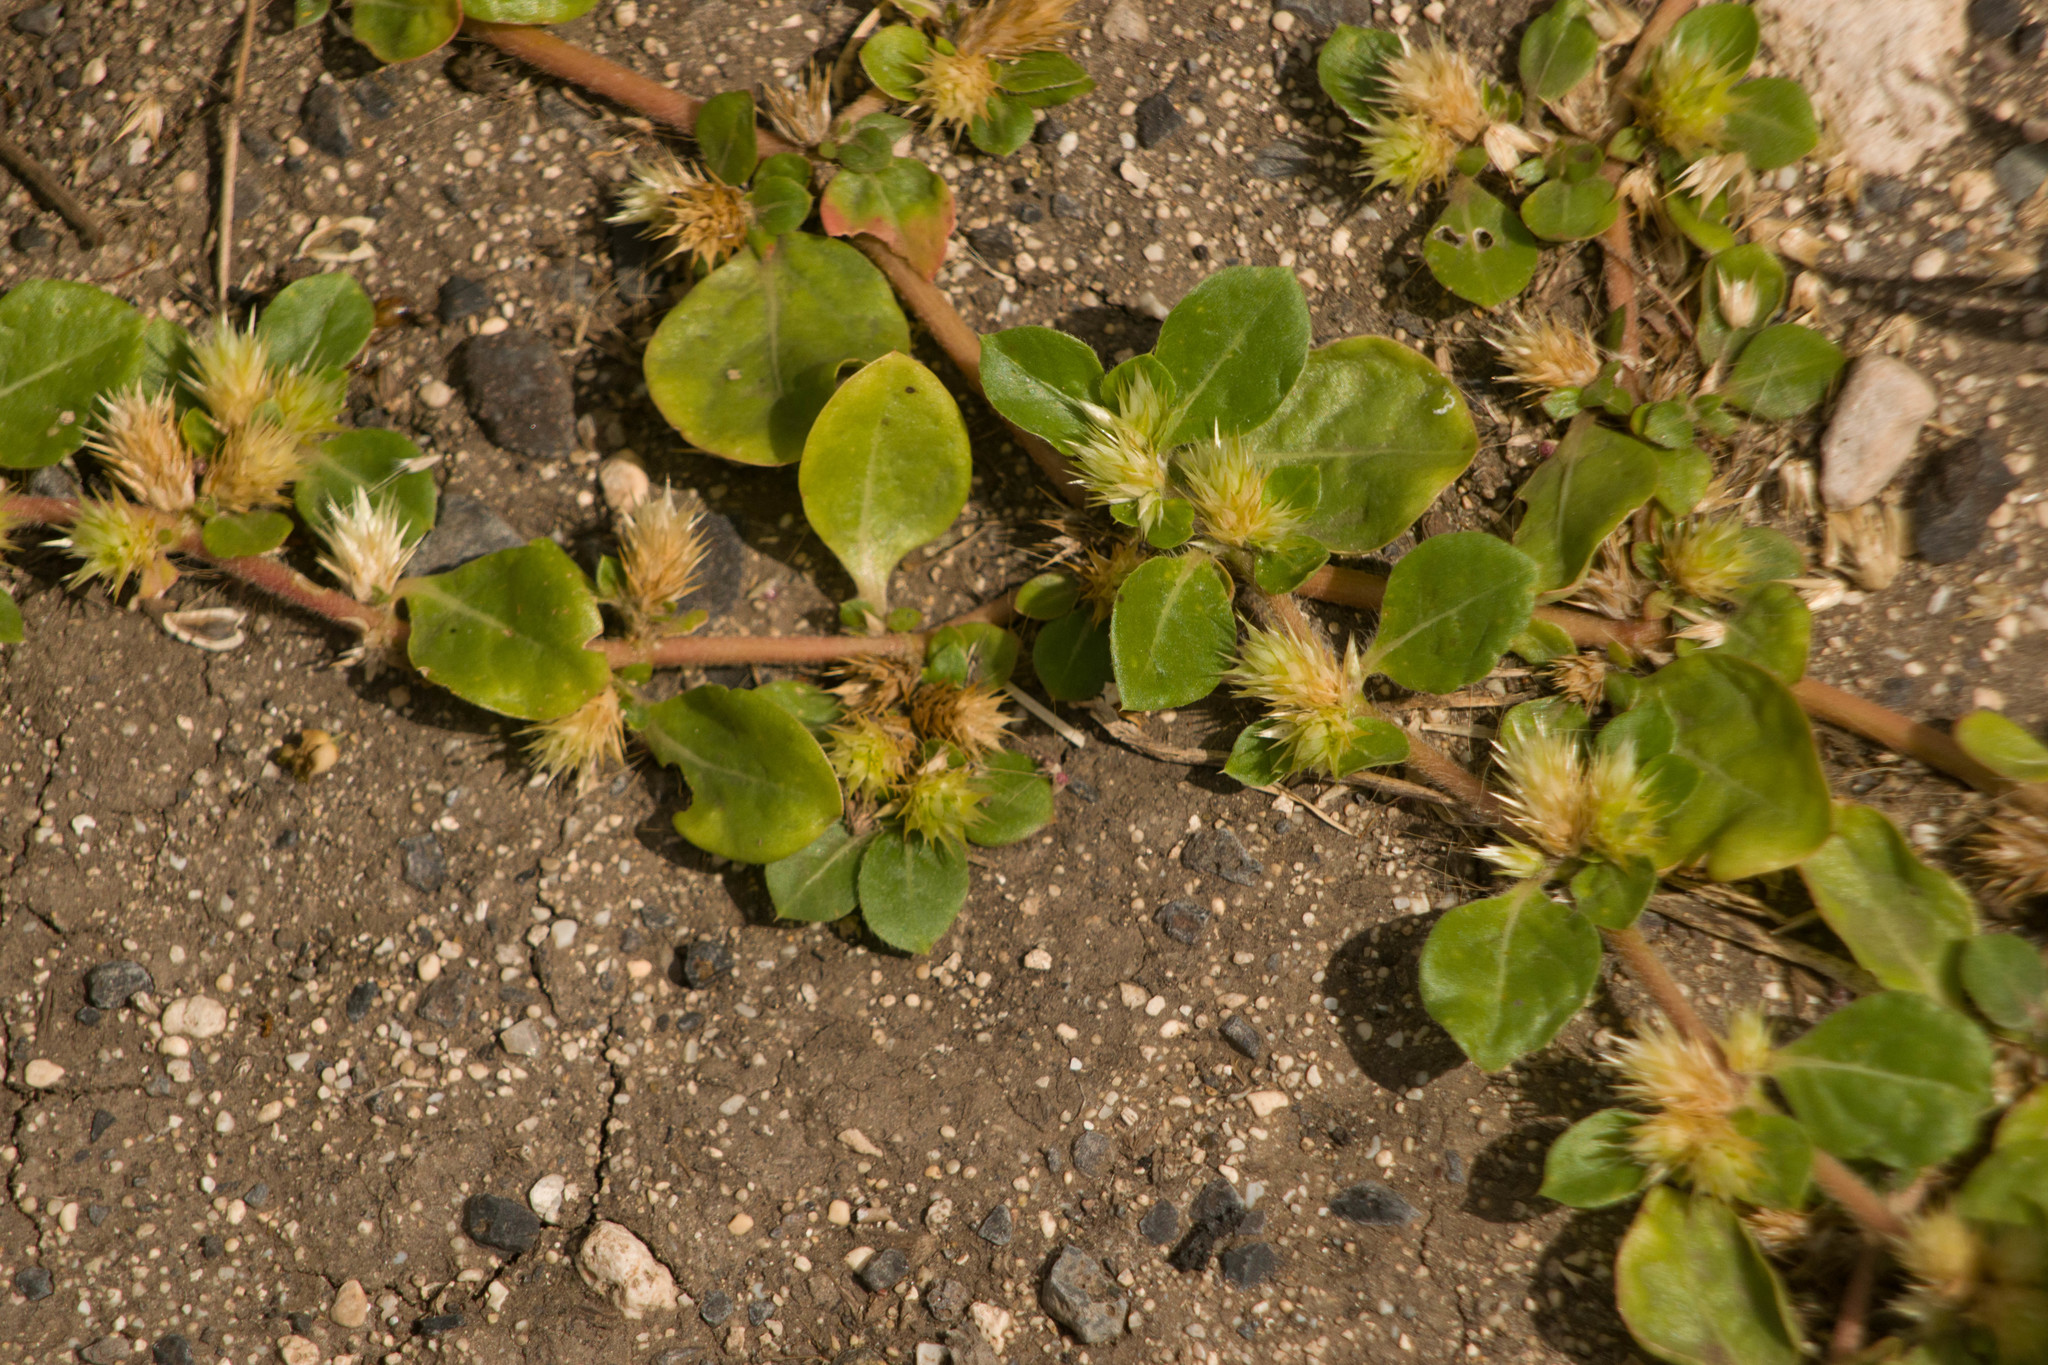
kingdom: Plantae
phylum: Tracheophyta
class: Magnoliopsida
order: Caryophyllales
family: Amaranthaceae
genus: Alternanthera
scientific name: Alternanthera pungens
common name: Khakiweed
